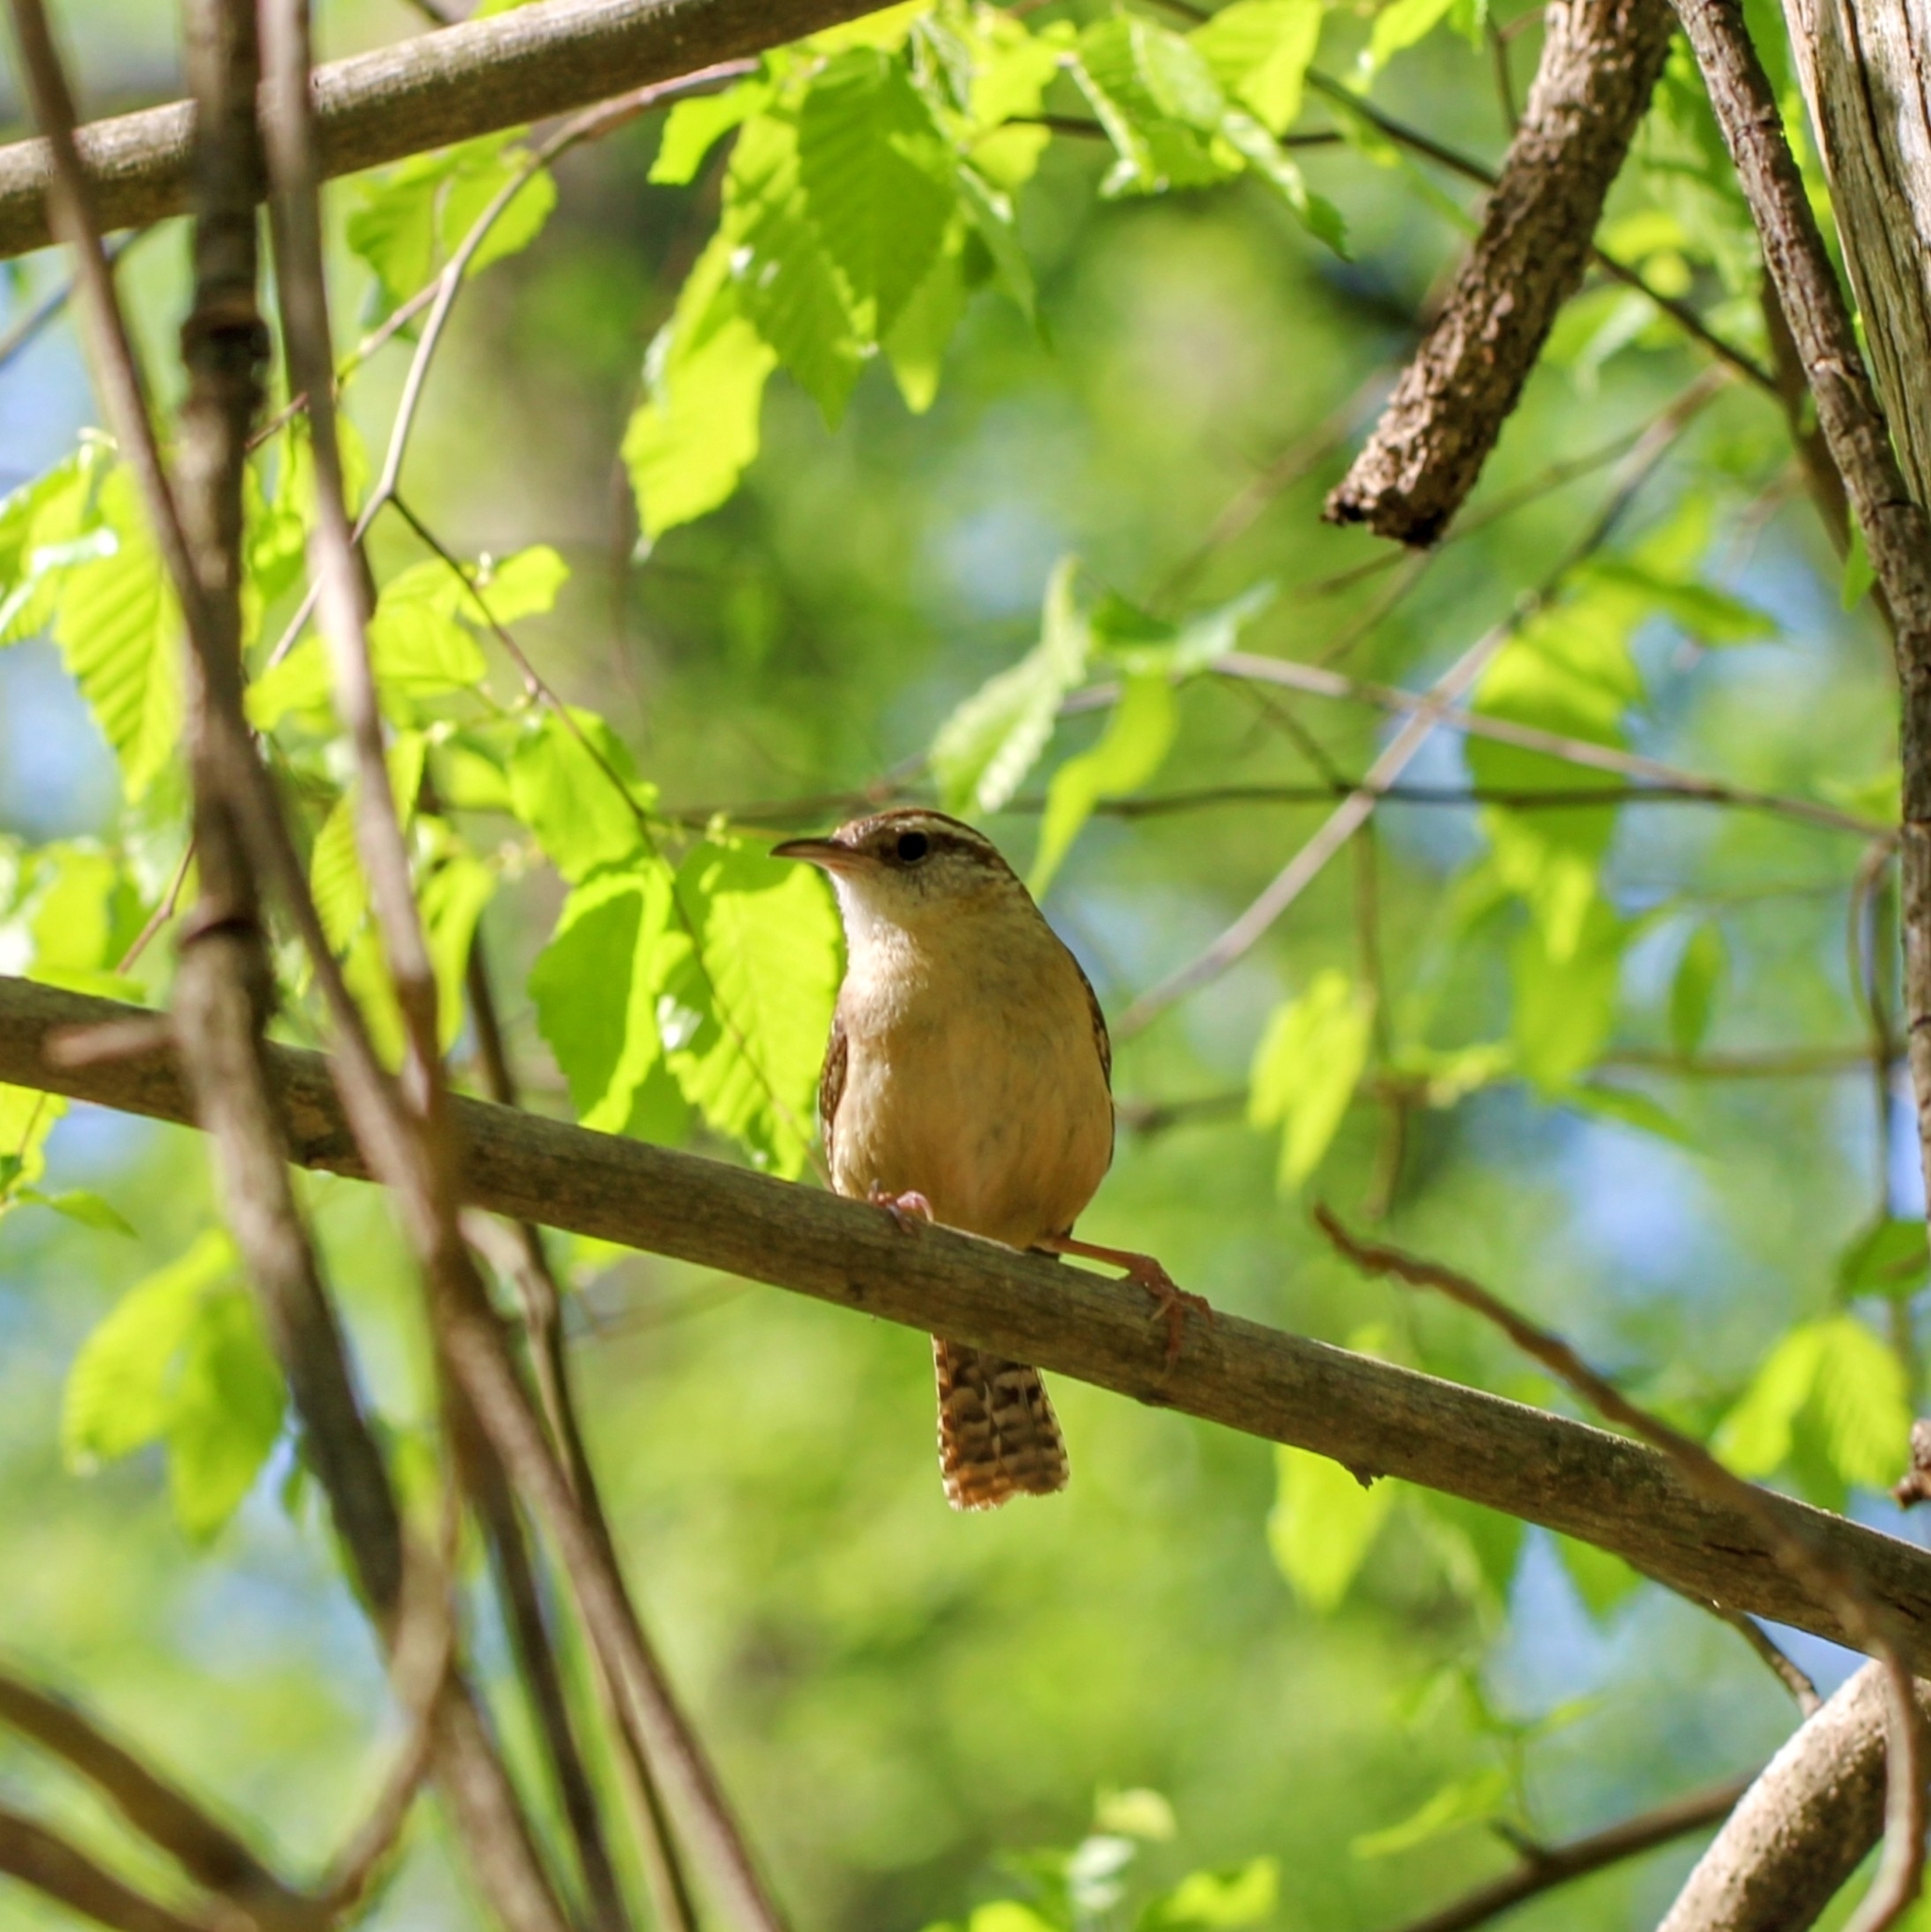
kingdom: Animalia
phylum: Chordata
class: Aves
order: Passeriformes
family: Troglodytidae
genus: Thryothorus
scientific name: Thryothorus ludovicianus
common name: Carolina wren
